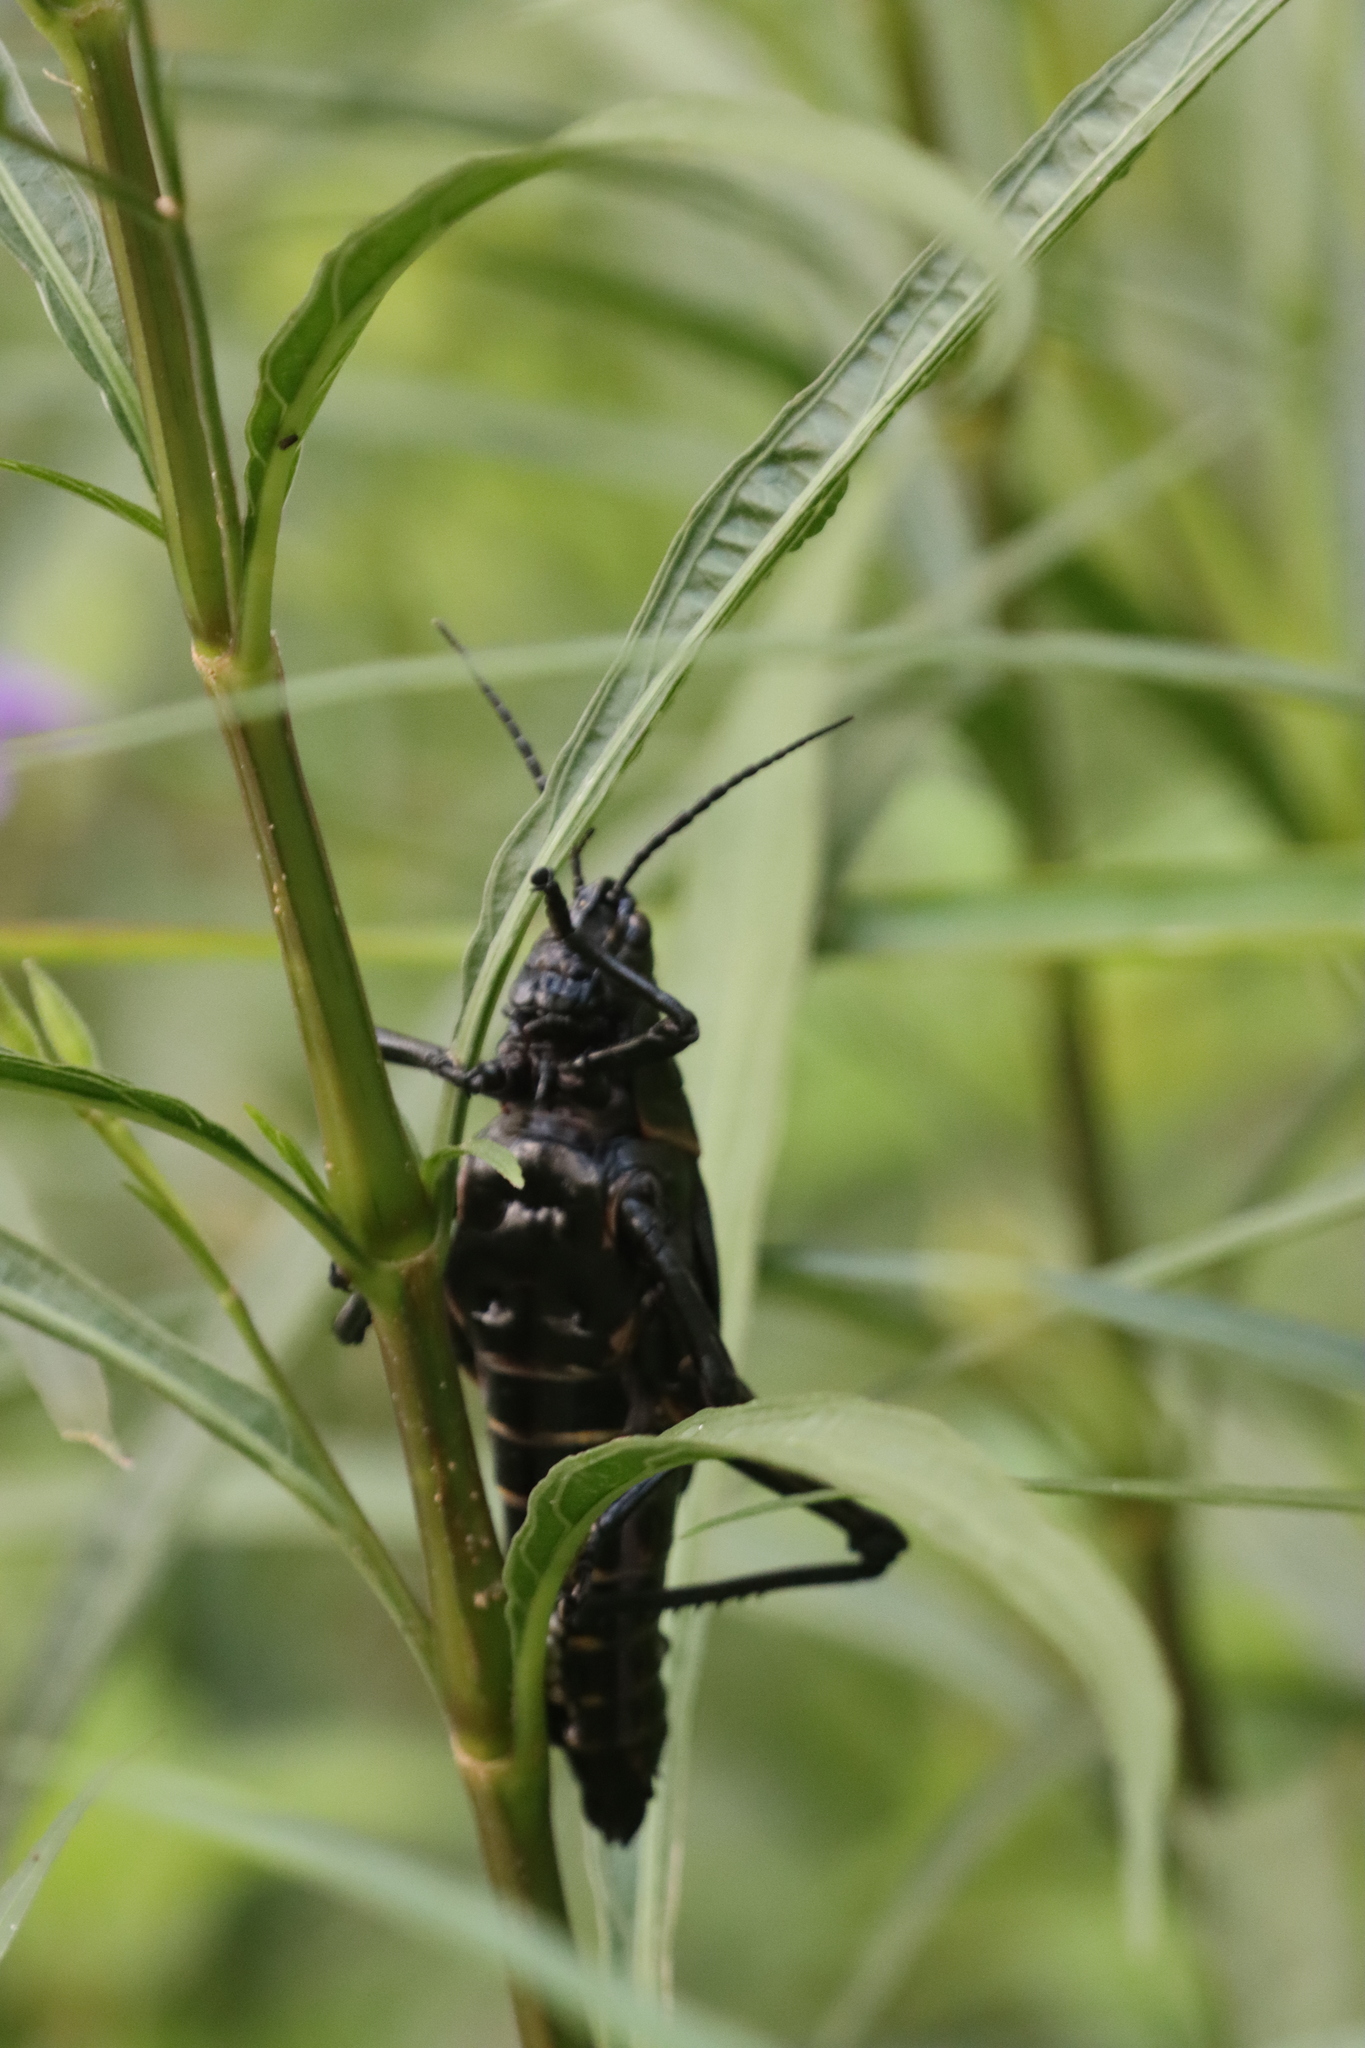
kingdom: Animalia
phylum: Arthropoda
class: Insecta
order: Orthoptera
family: Romaleidae
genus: Romalea
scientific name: Romalea microptera
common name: Eastern lubber grasshopper
